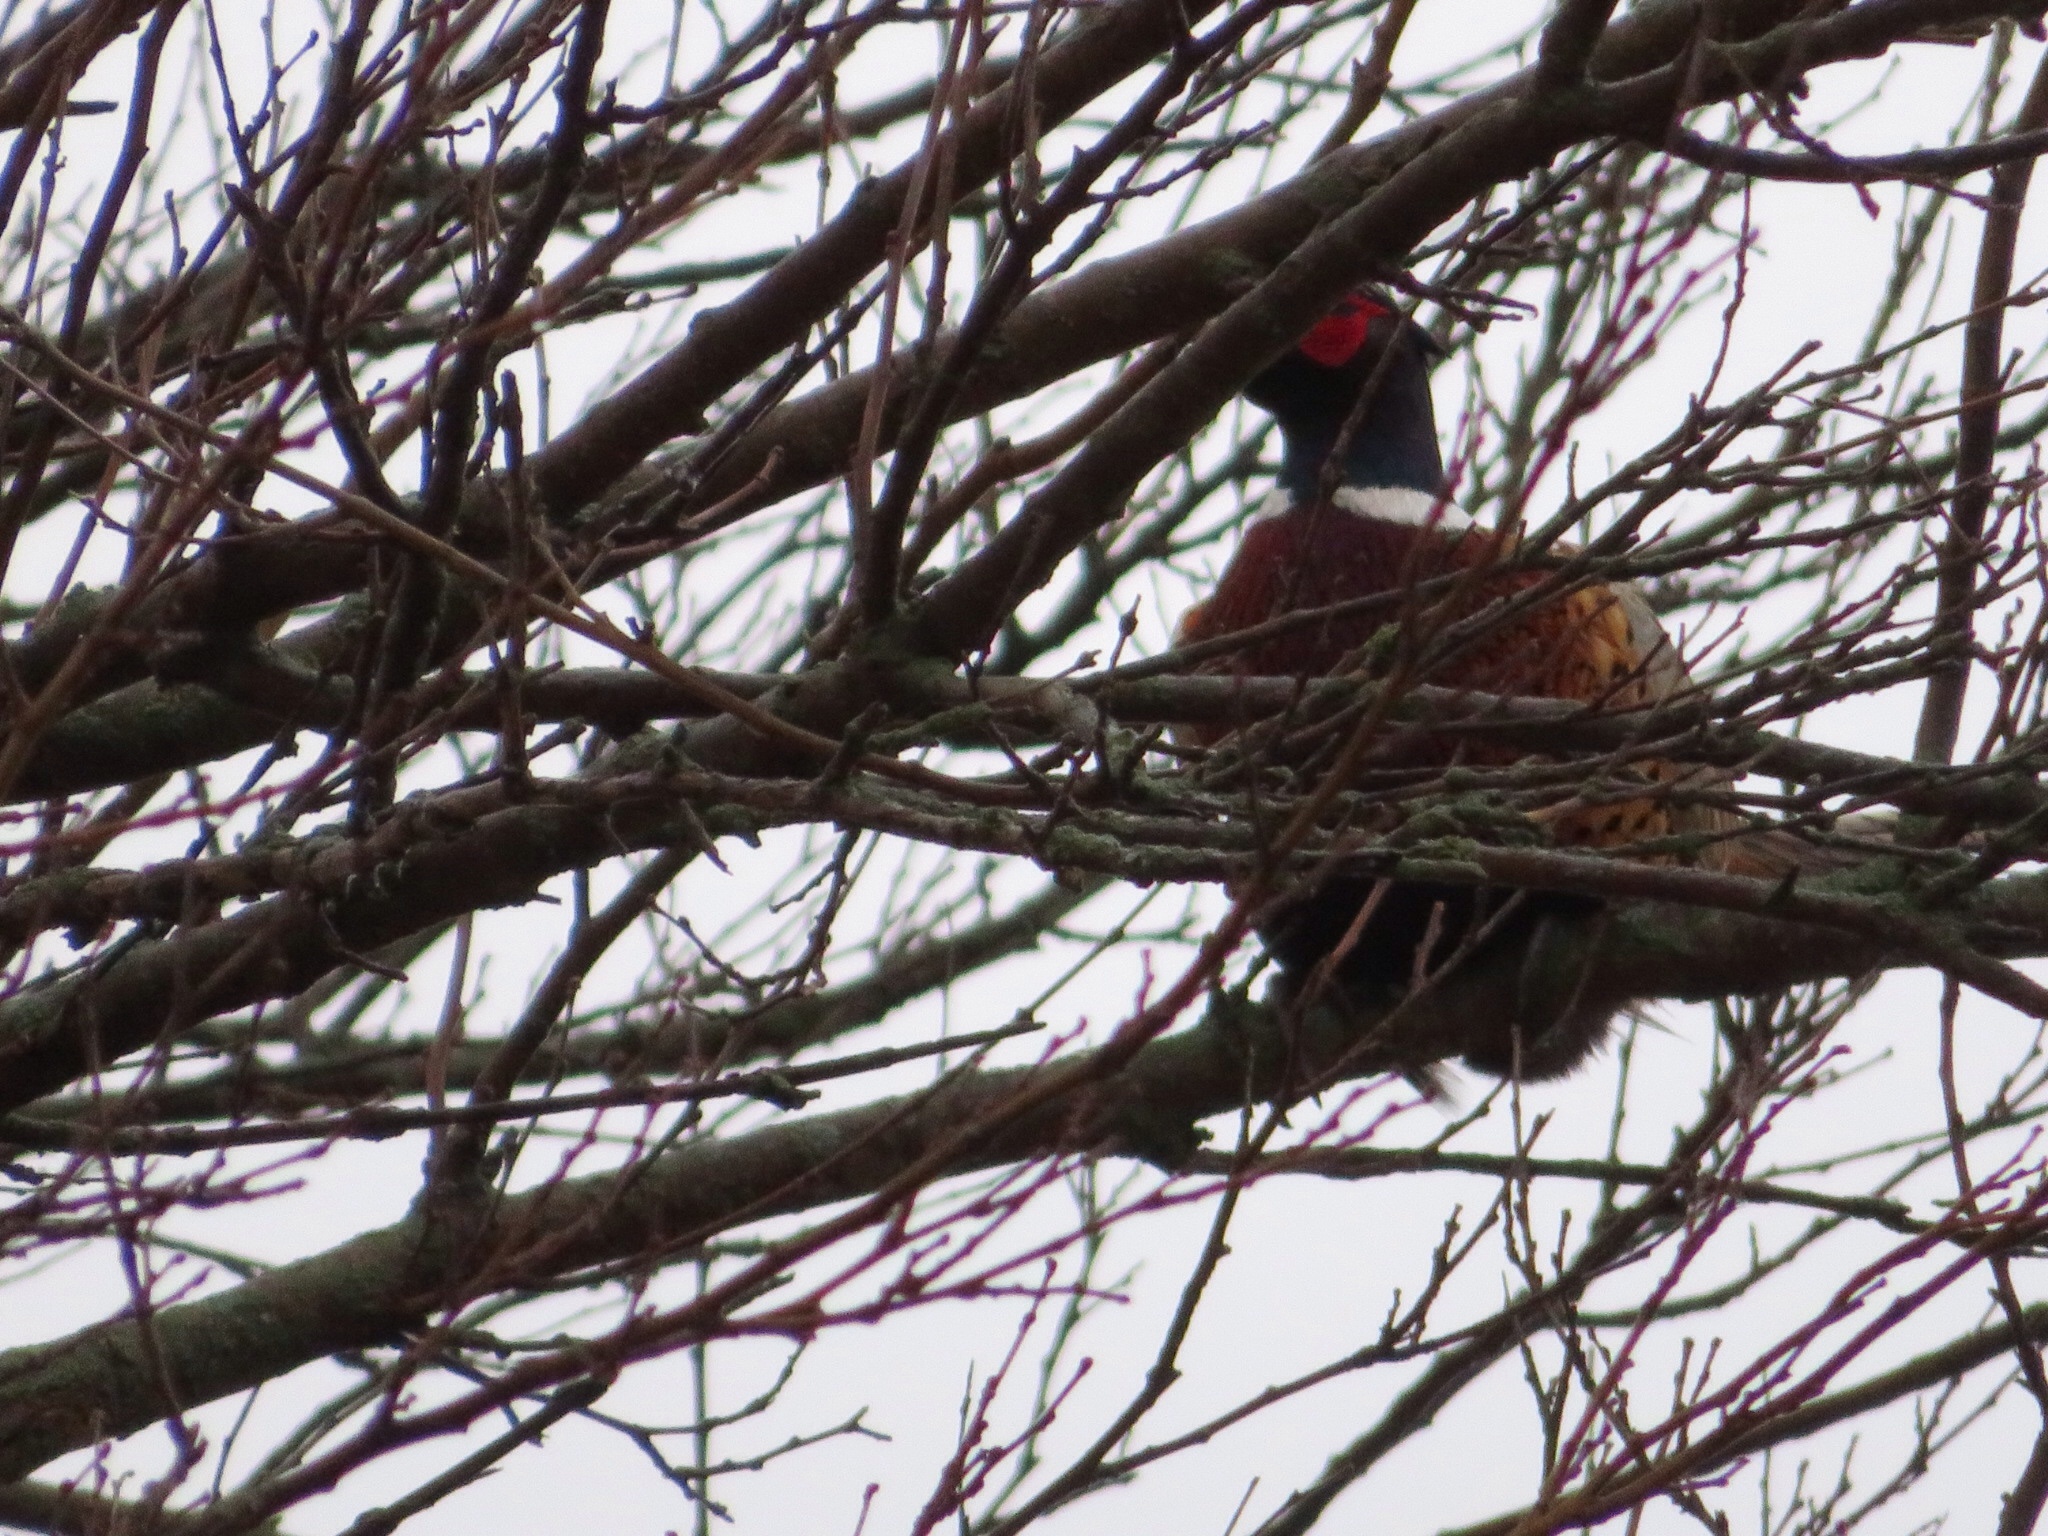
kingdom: Animalia
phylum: Chordata
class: Aves
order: Galliformes
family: Phasianidae
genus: Phasianus
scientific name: Phasianus colchicus
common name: Common pheasant
